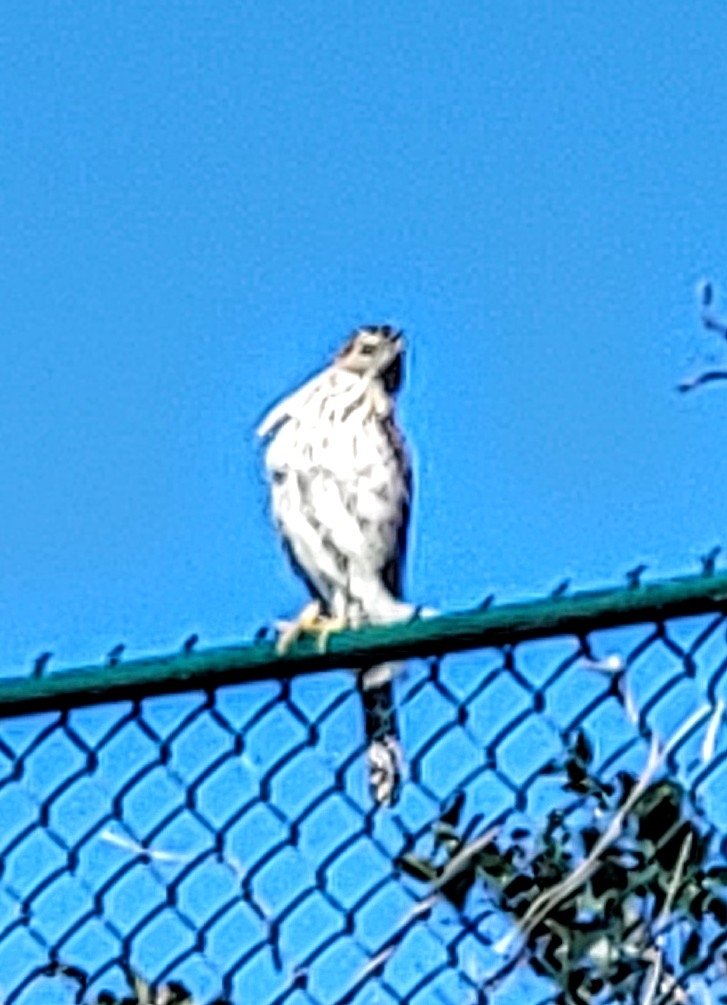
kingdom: Animalia
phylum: Chordata
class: Aves
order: Accipitriformes
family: Accipitridae
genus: Accipiter
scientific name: Accipiter cooperii
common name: Cooper's hawk
